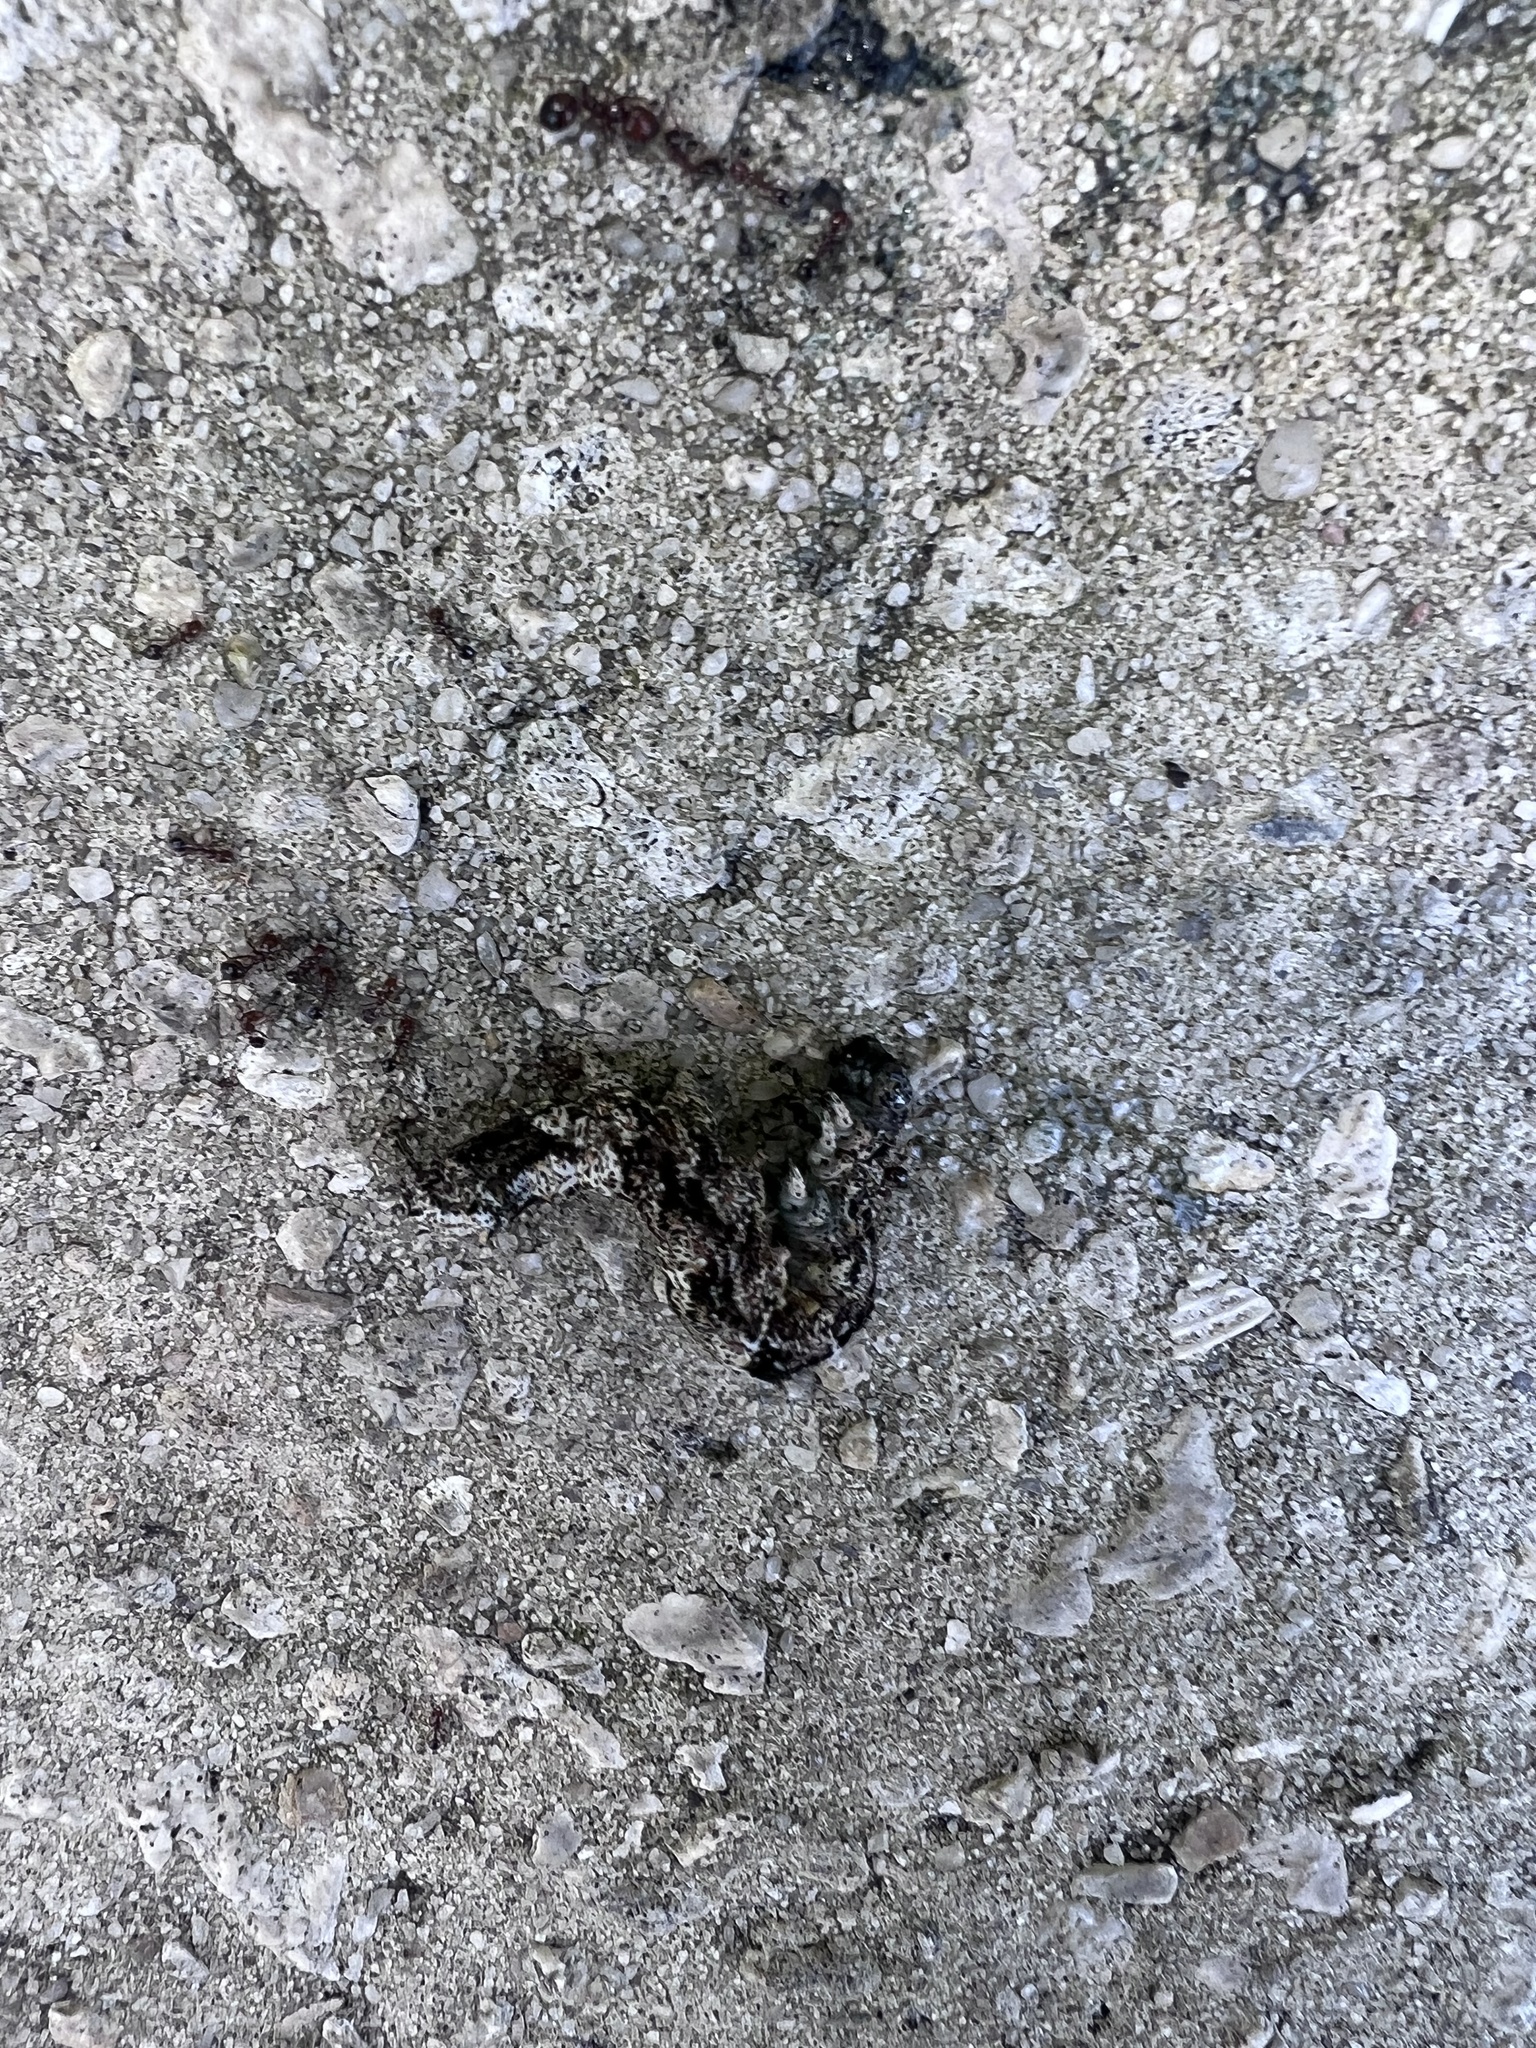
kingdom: Animalia
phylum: Arthropoda
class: Insecta
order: Lepidoptera
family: Erebidae
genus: Metria
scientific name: Metria amella
